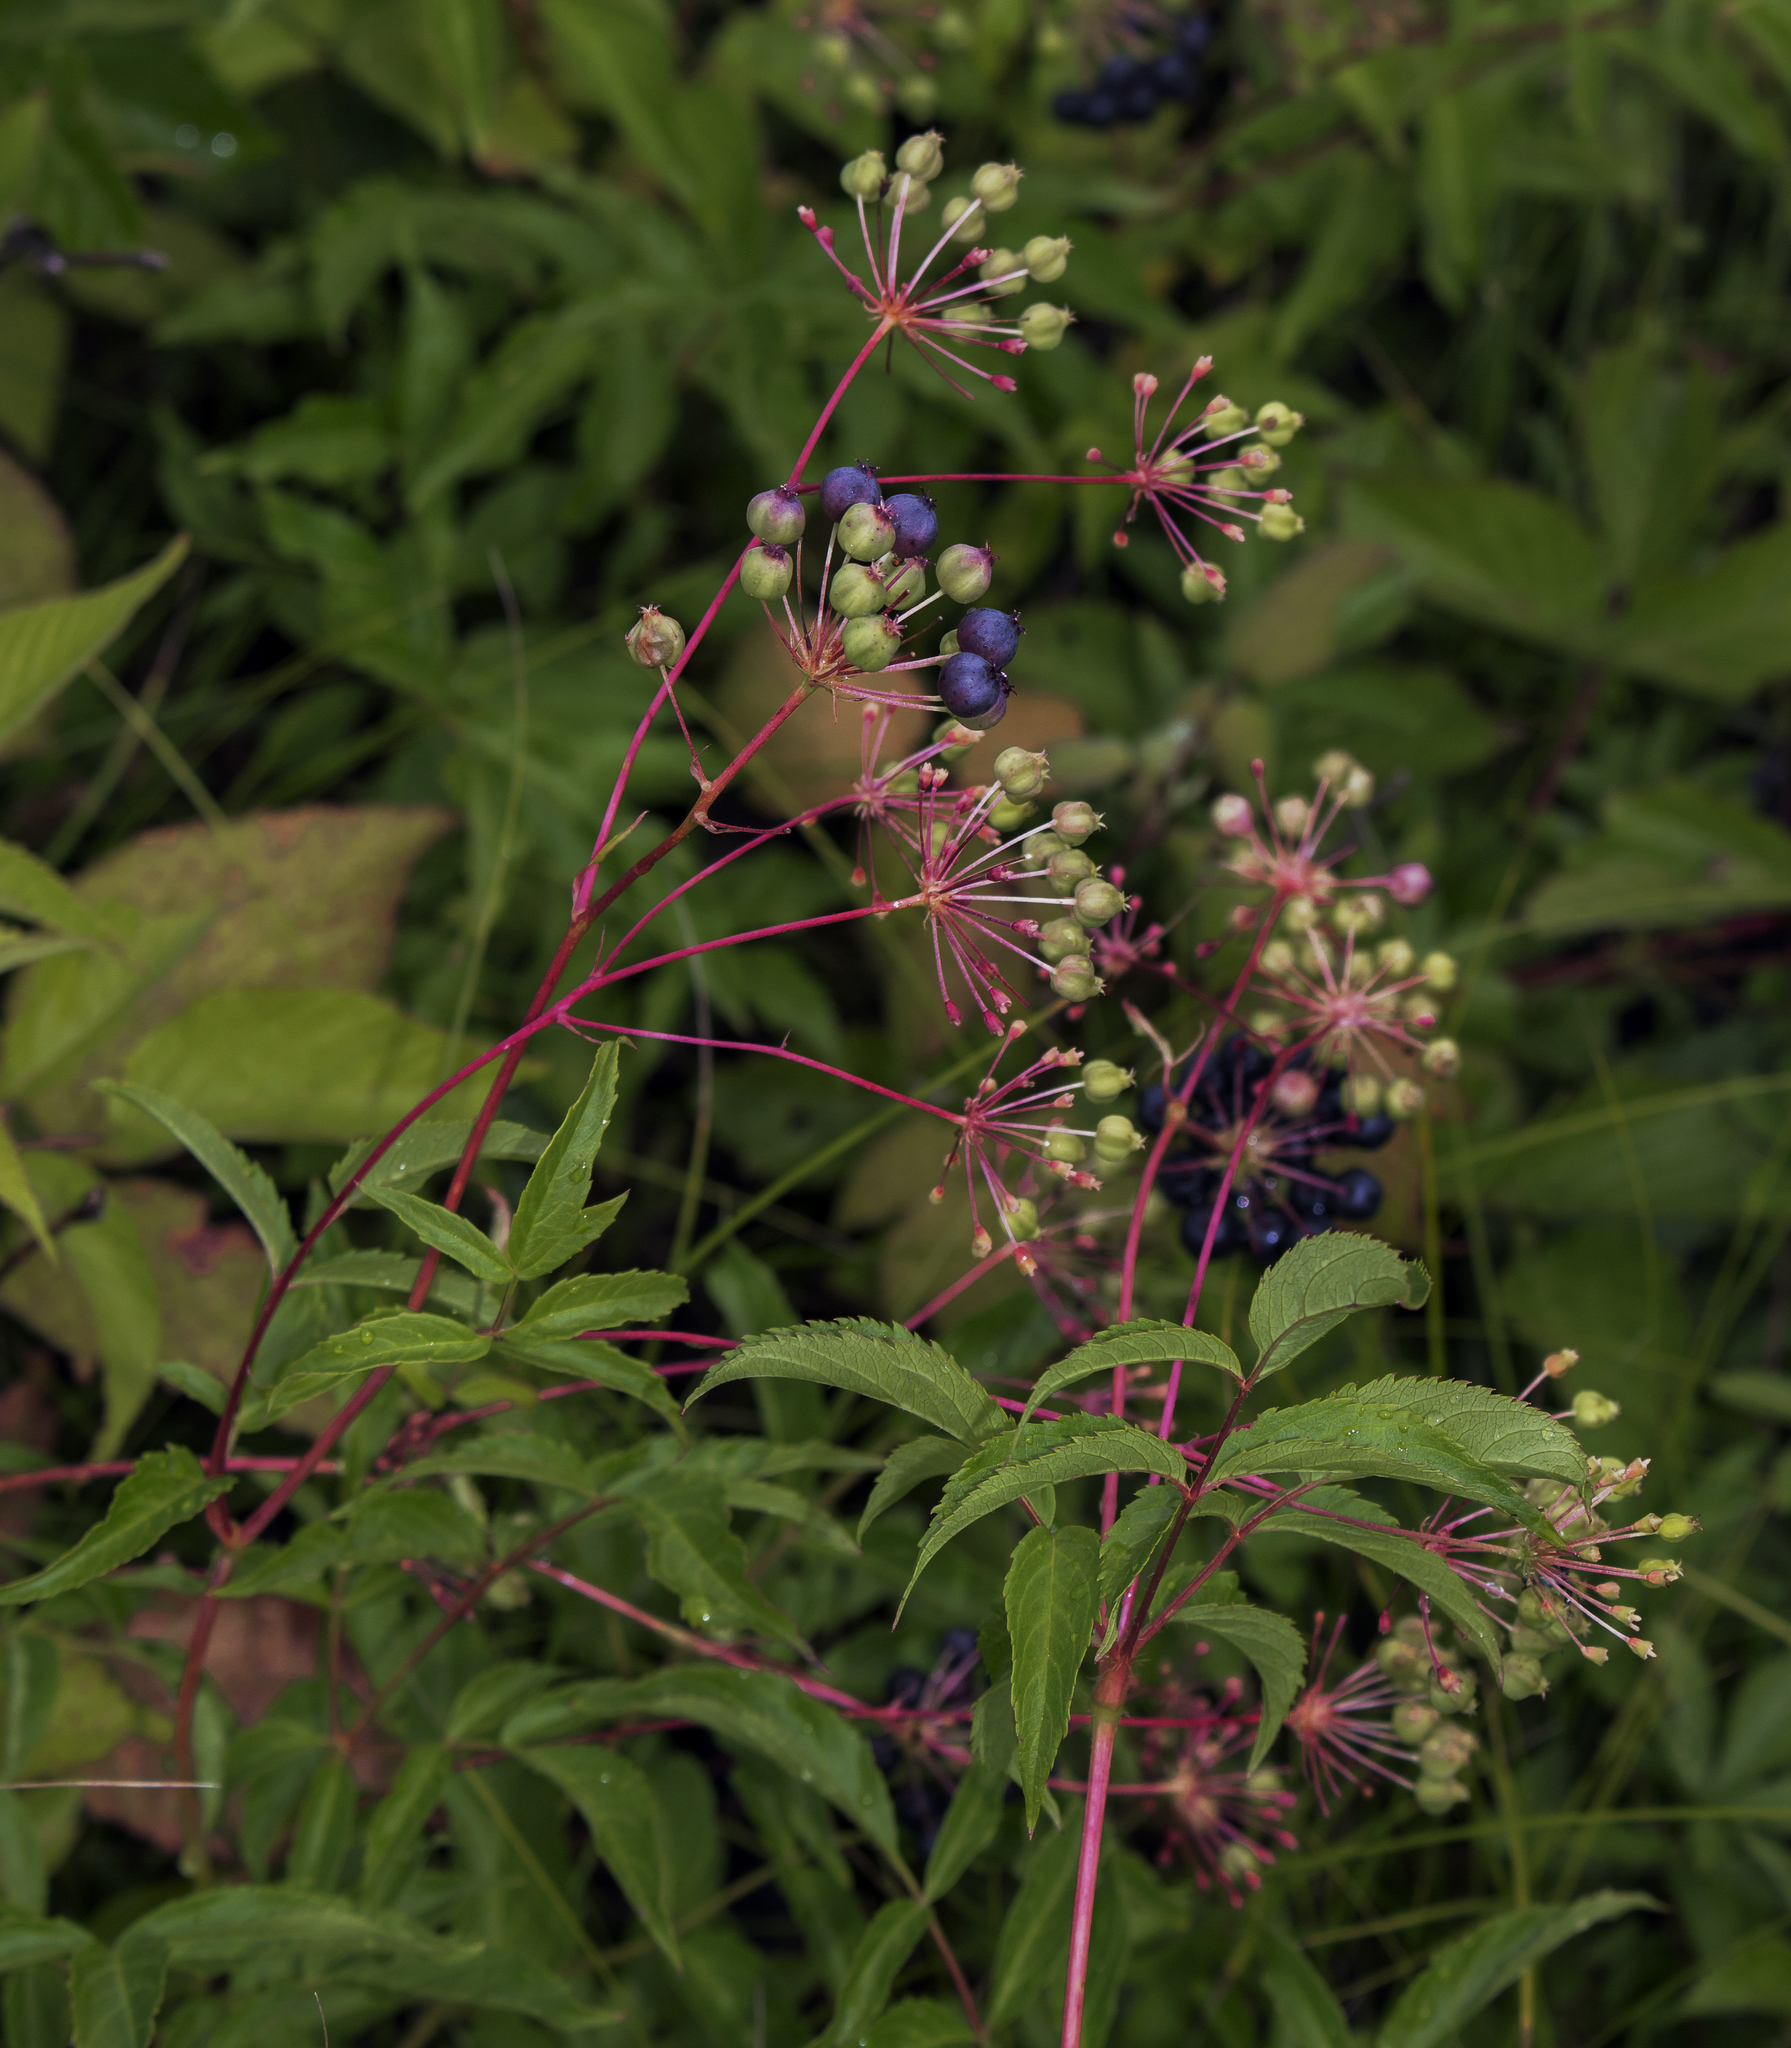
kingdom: Plantae
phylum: Tracheophyta
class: Magnoliopsida
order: Apiales
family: Araliaceae
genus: Aralia
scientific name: Aralia hispida
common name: Bristly sarsaparilla
